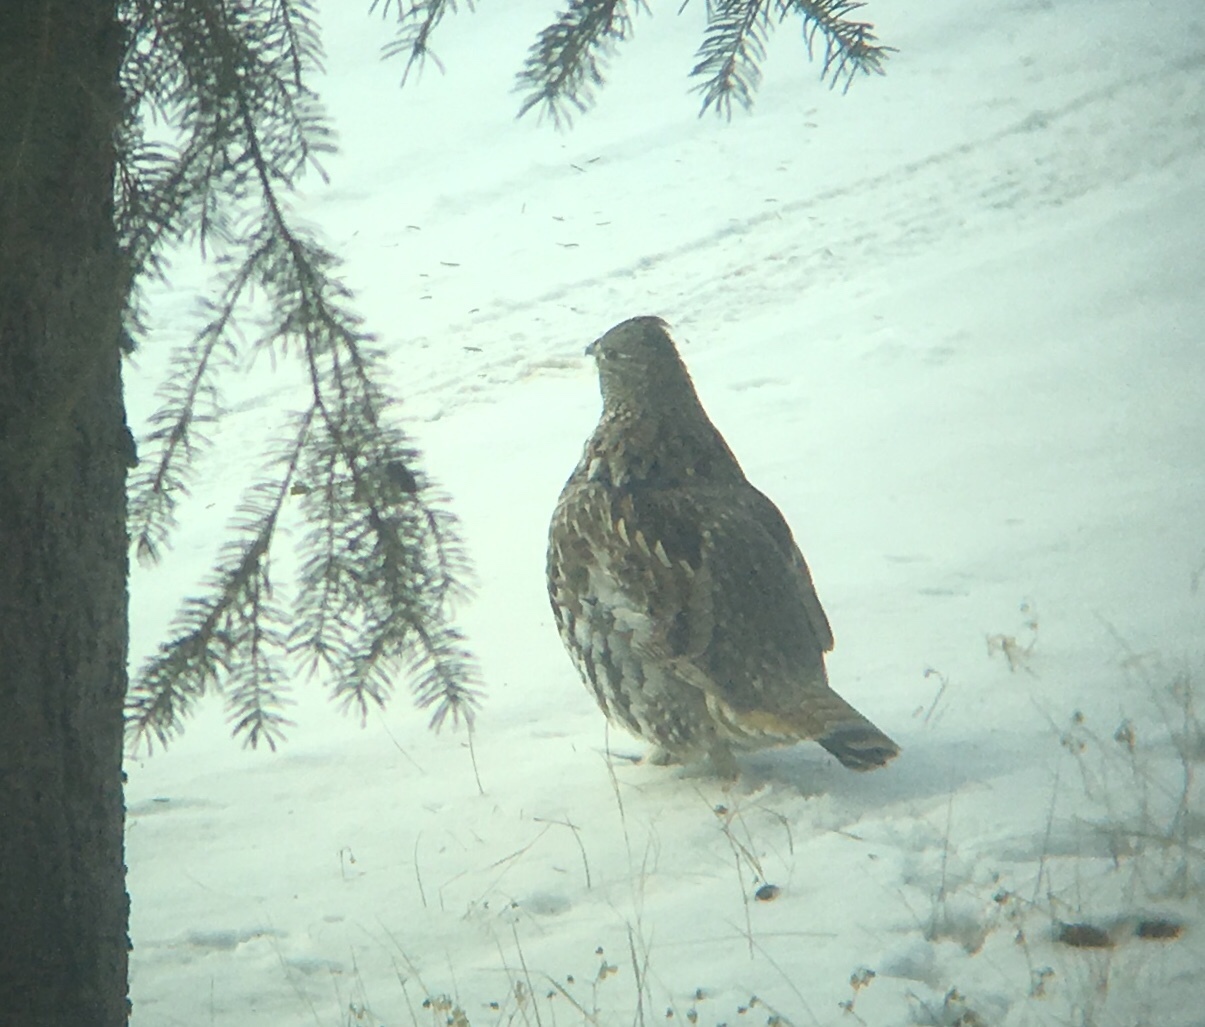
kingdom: Animalia
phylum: Chordata
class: Aves
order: Galliformes
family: Phasianidae
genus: Bonasa
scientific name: Bonasa umbellus
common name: Ruffed grouse
